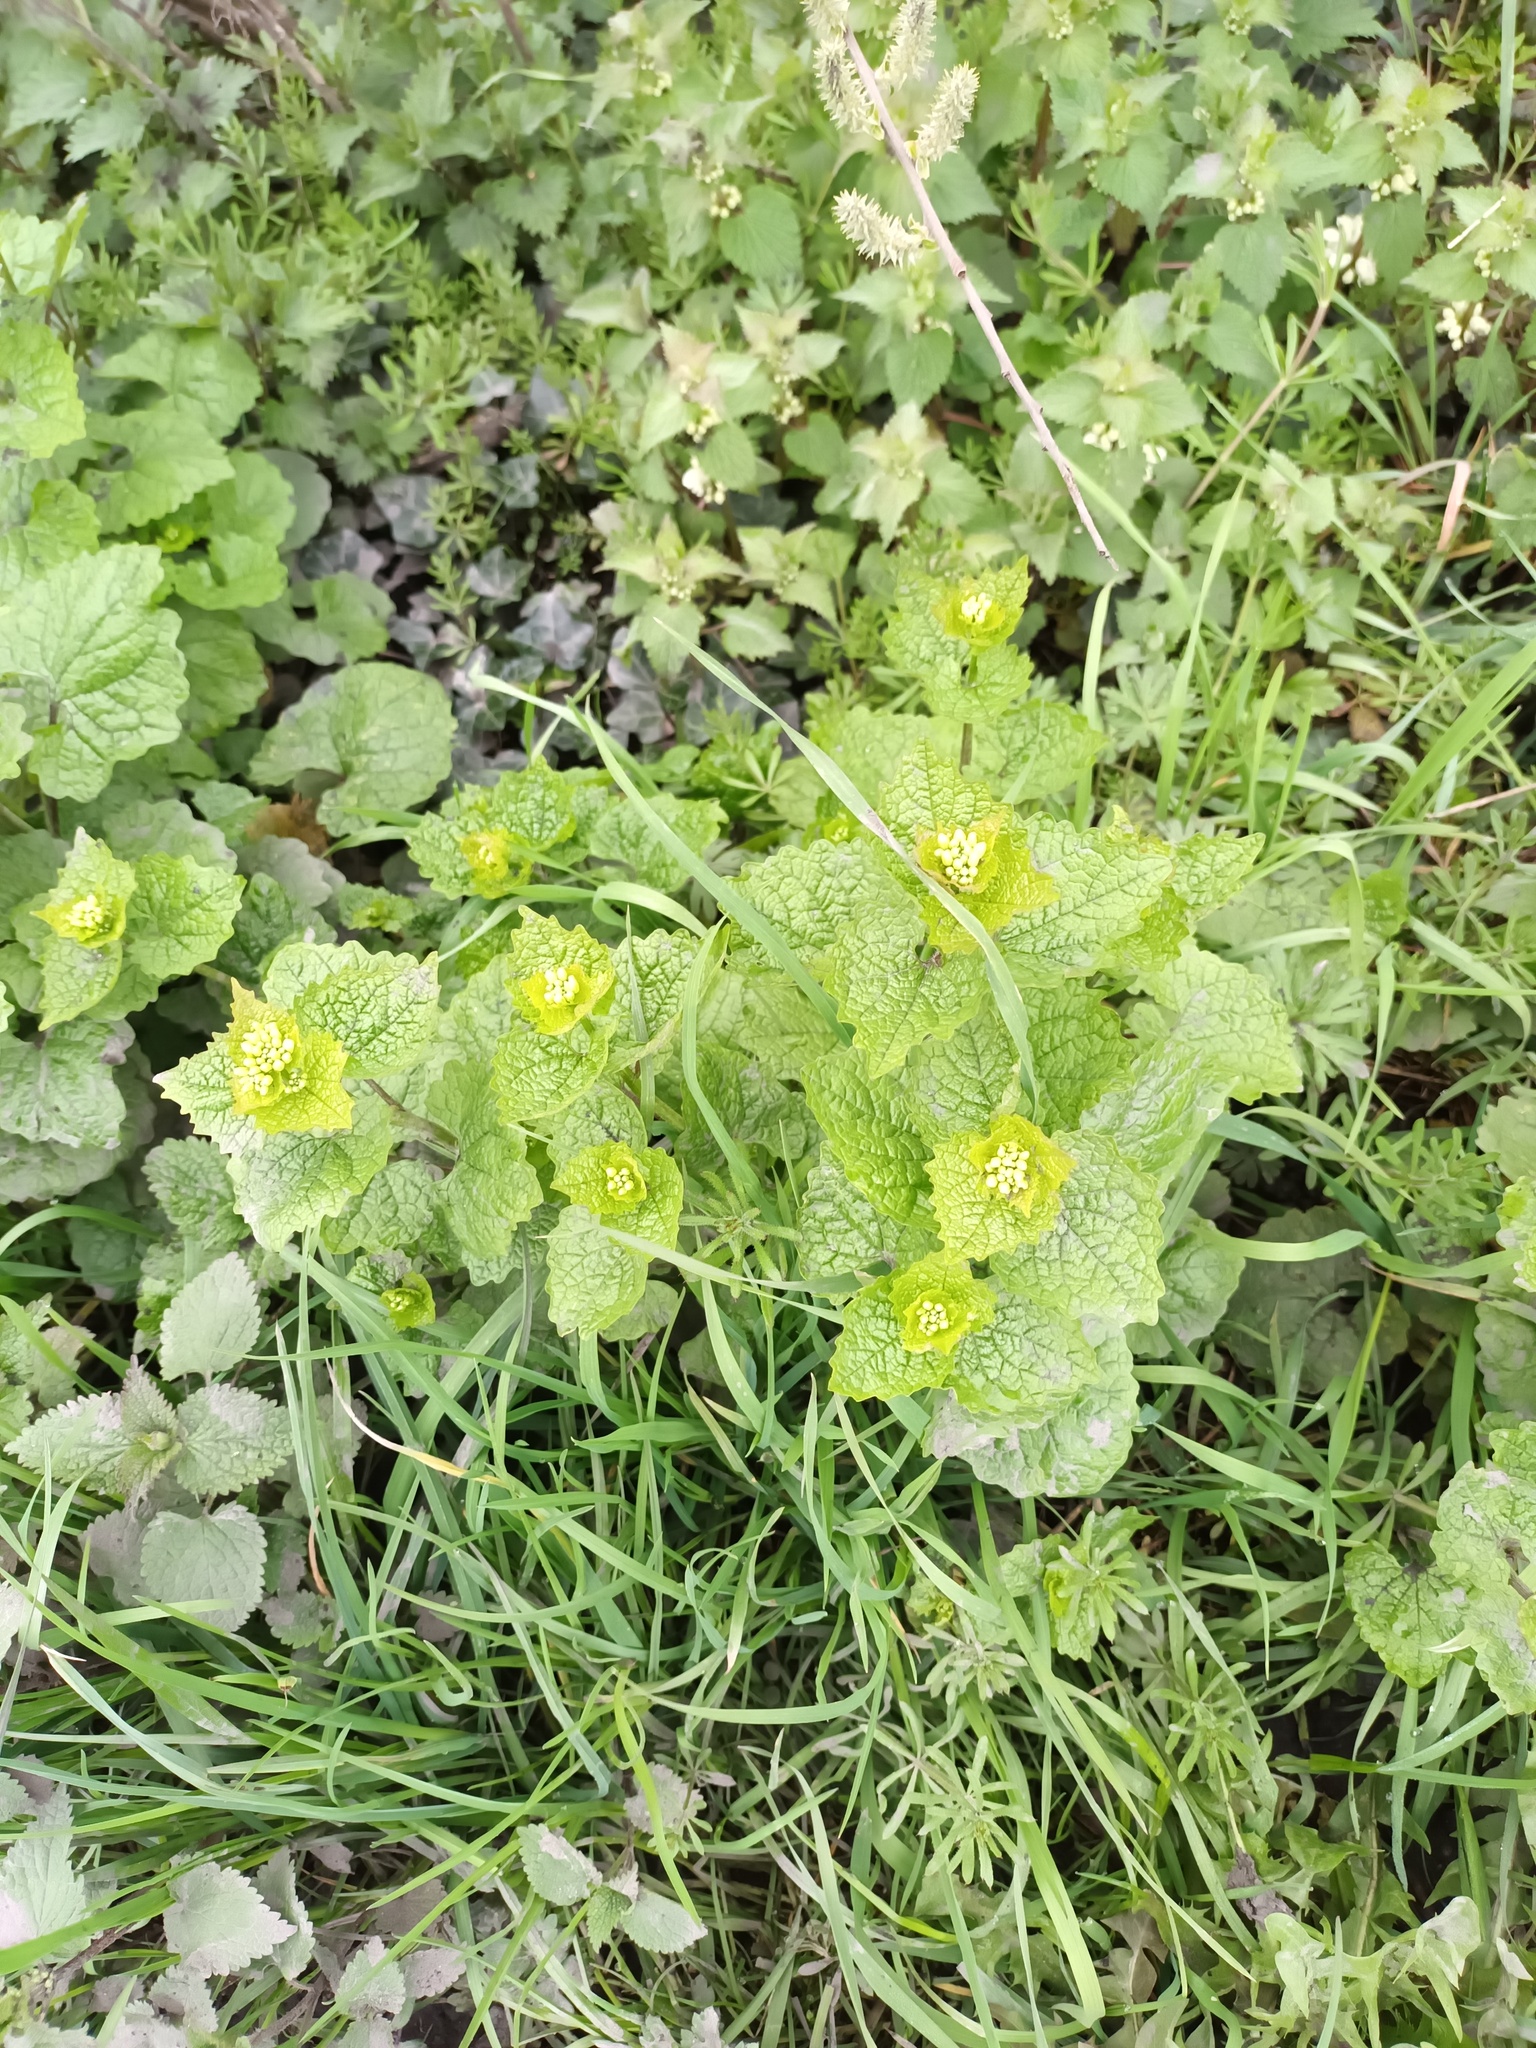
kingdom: Plantae
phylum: Tracheophyta
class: Magnoliopsida
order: Brassicales
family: Brassicaceae
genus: Alliaria
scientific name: Alliaria petiolata
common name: Garlic mustard
